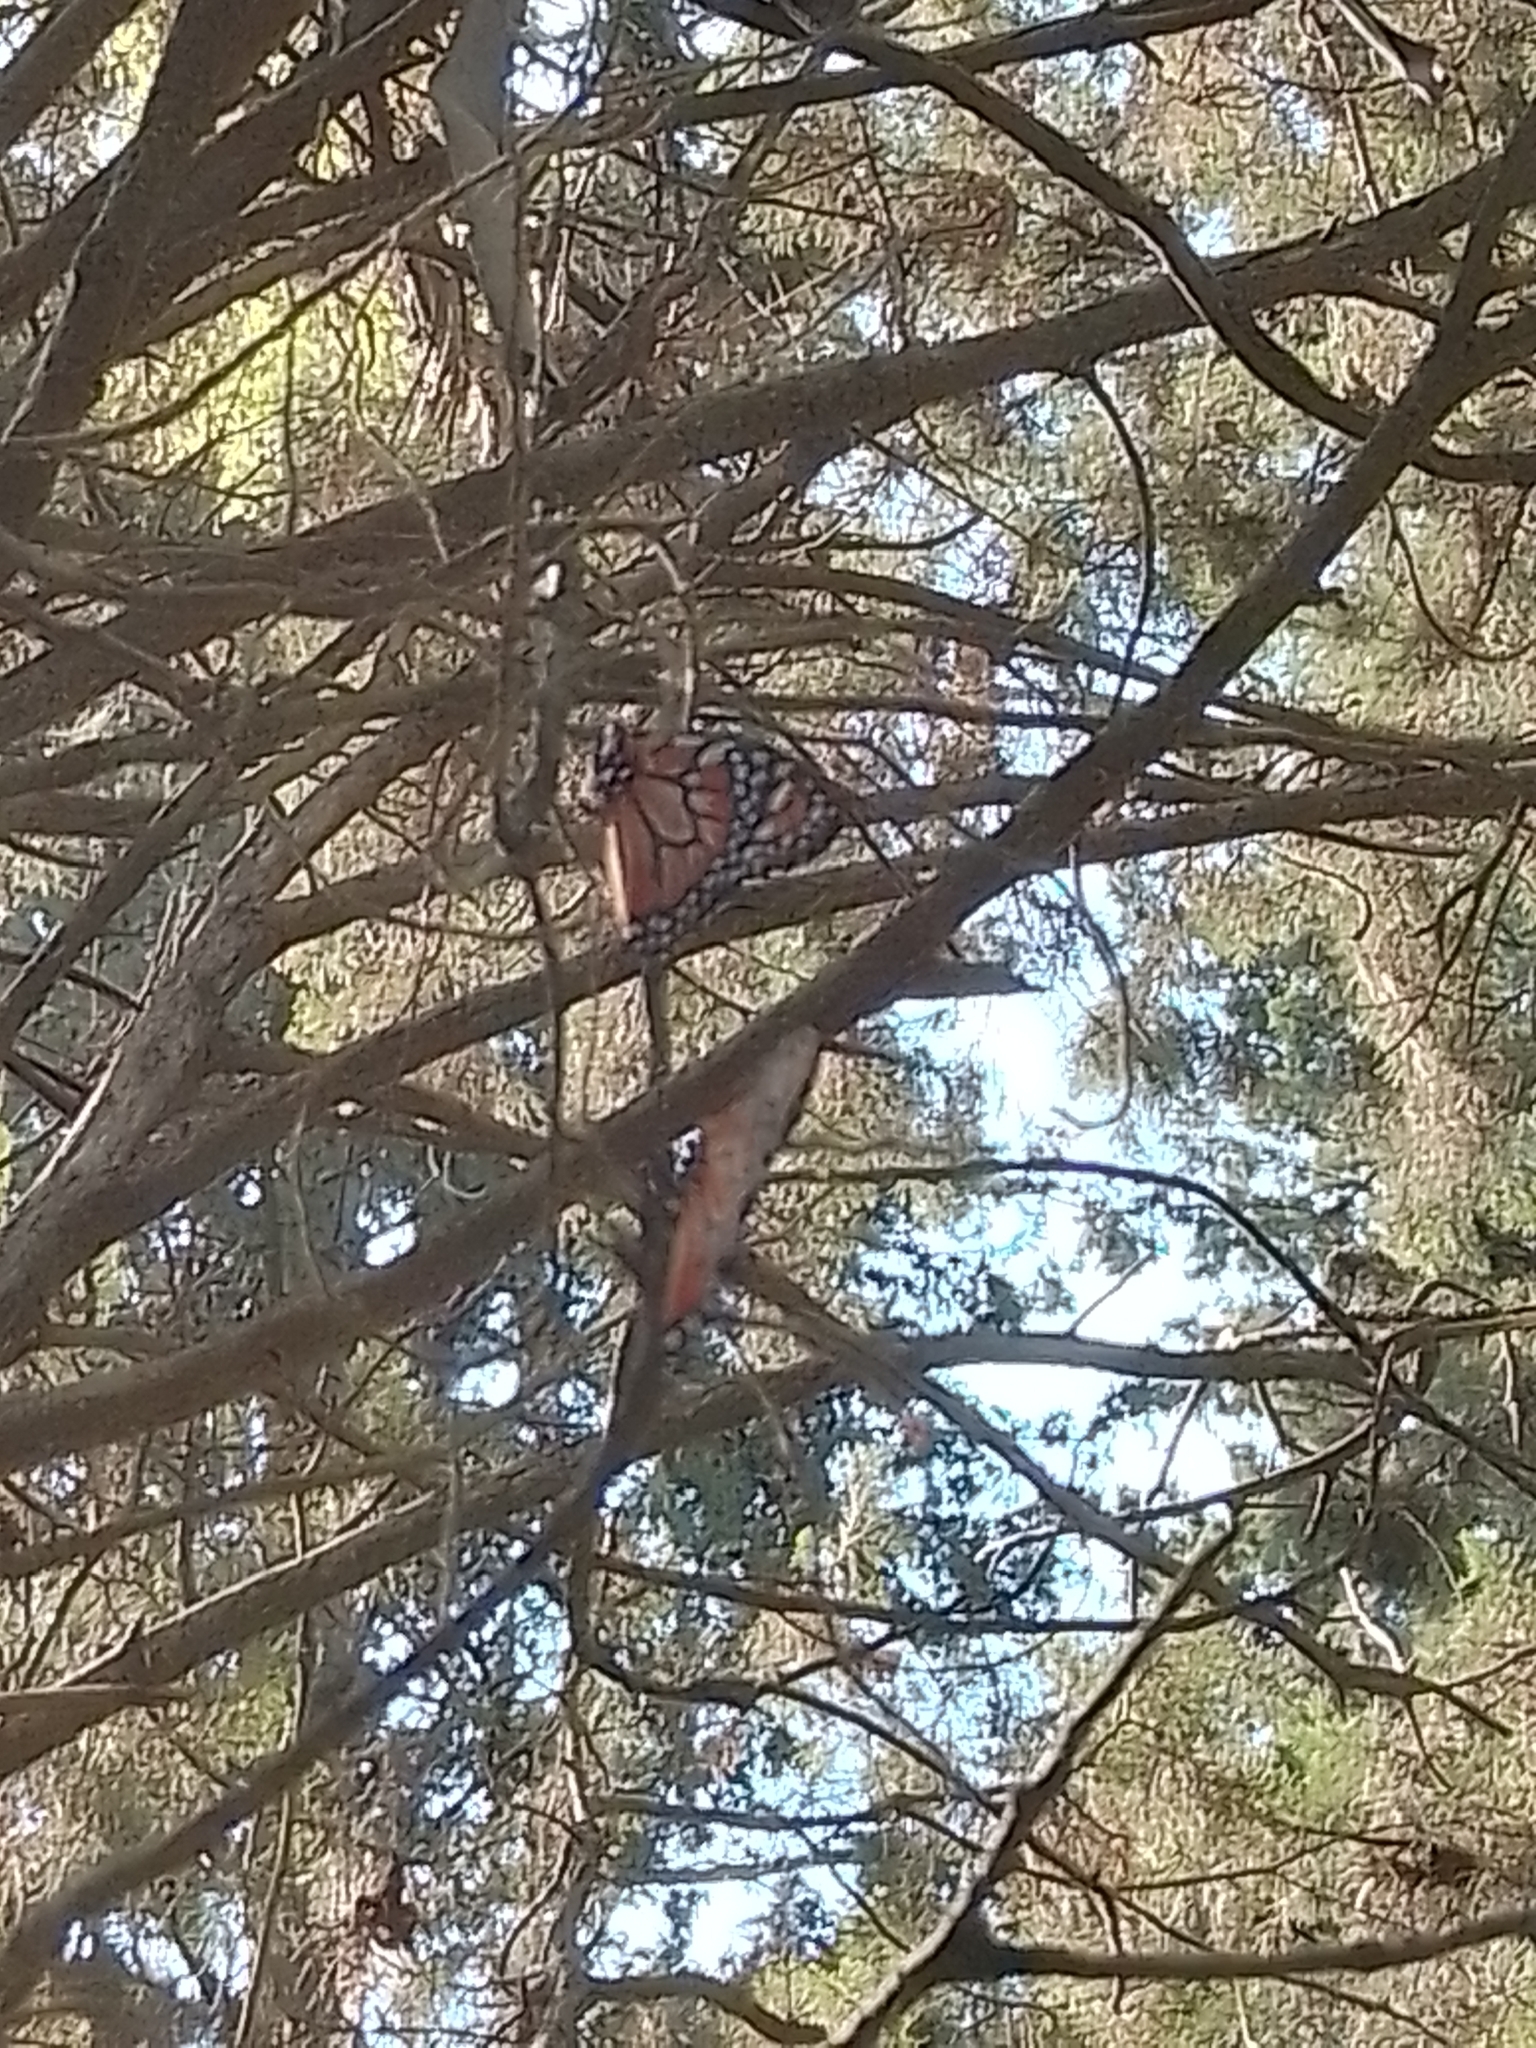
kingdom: Animalia
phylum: Arthropoda
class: Insecta
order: Lepidoptera
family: Nymphalidae
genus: Danaus
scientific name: Danaus erippus
